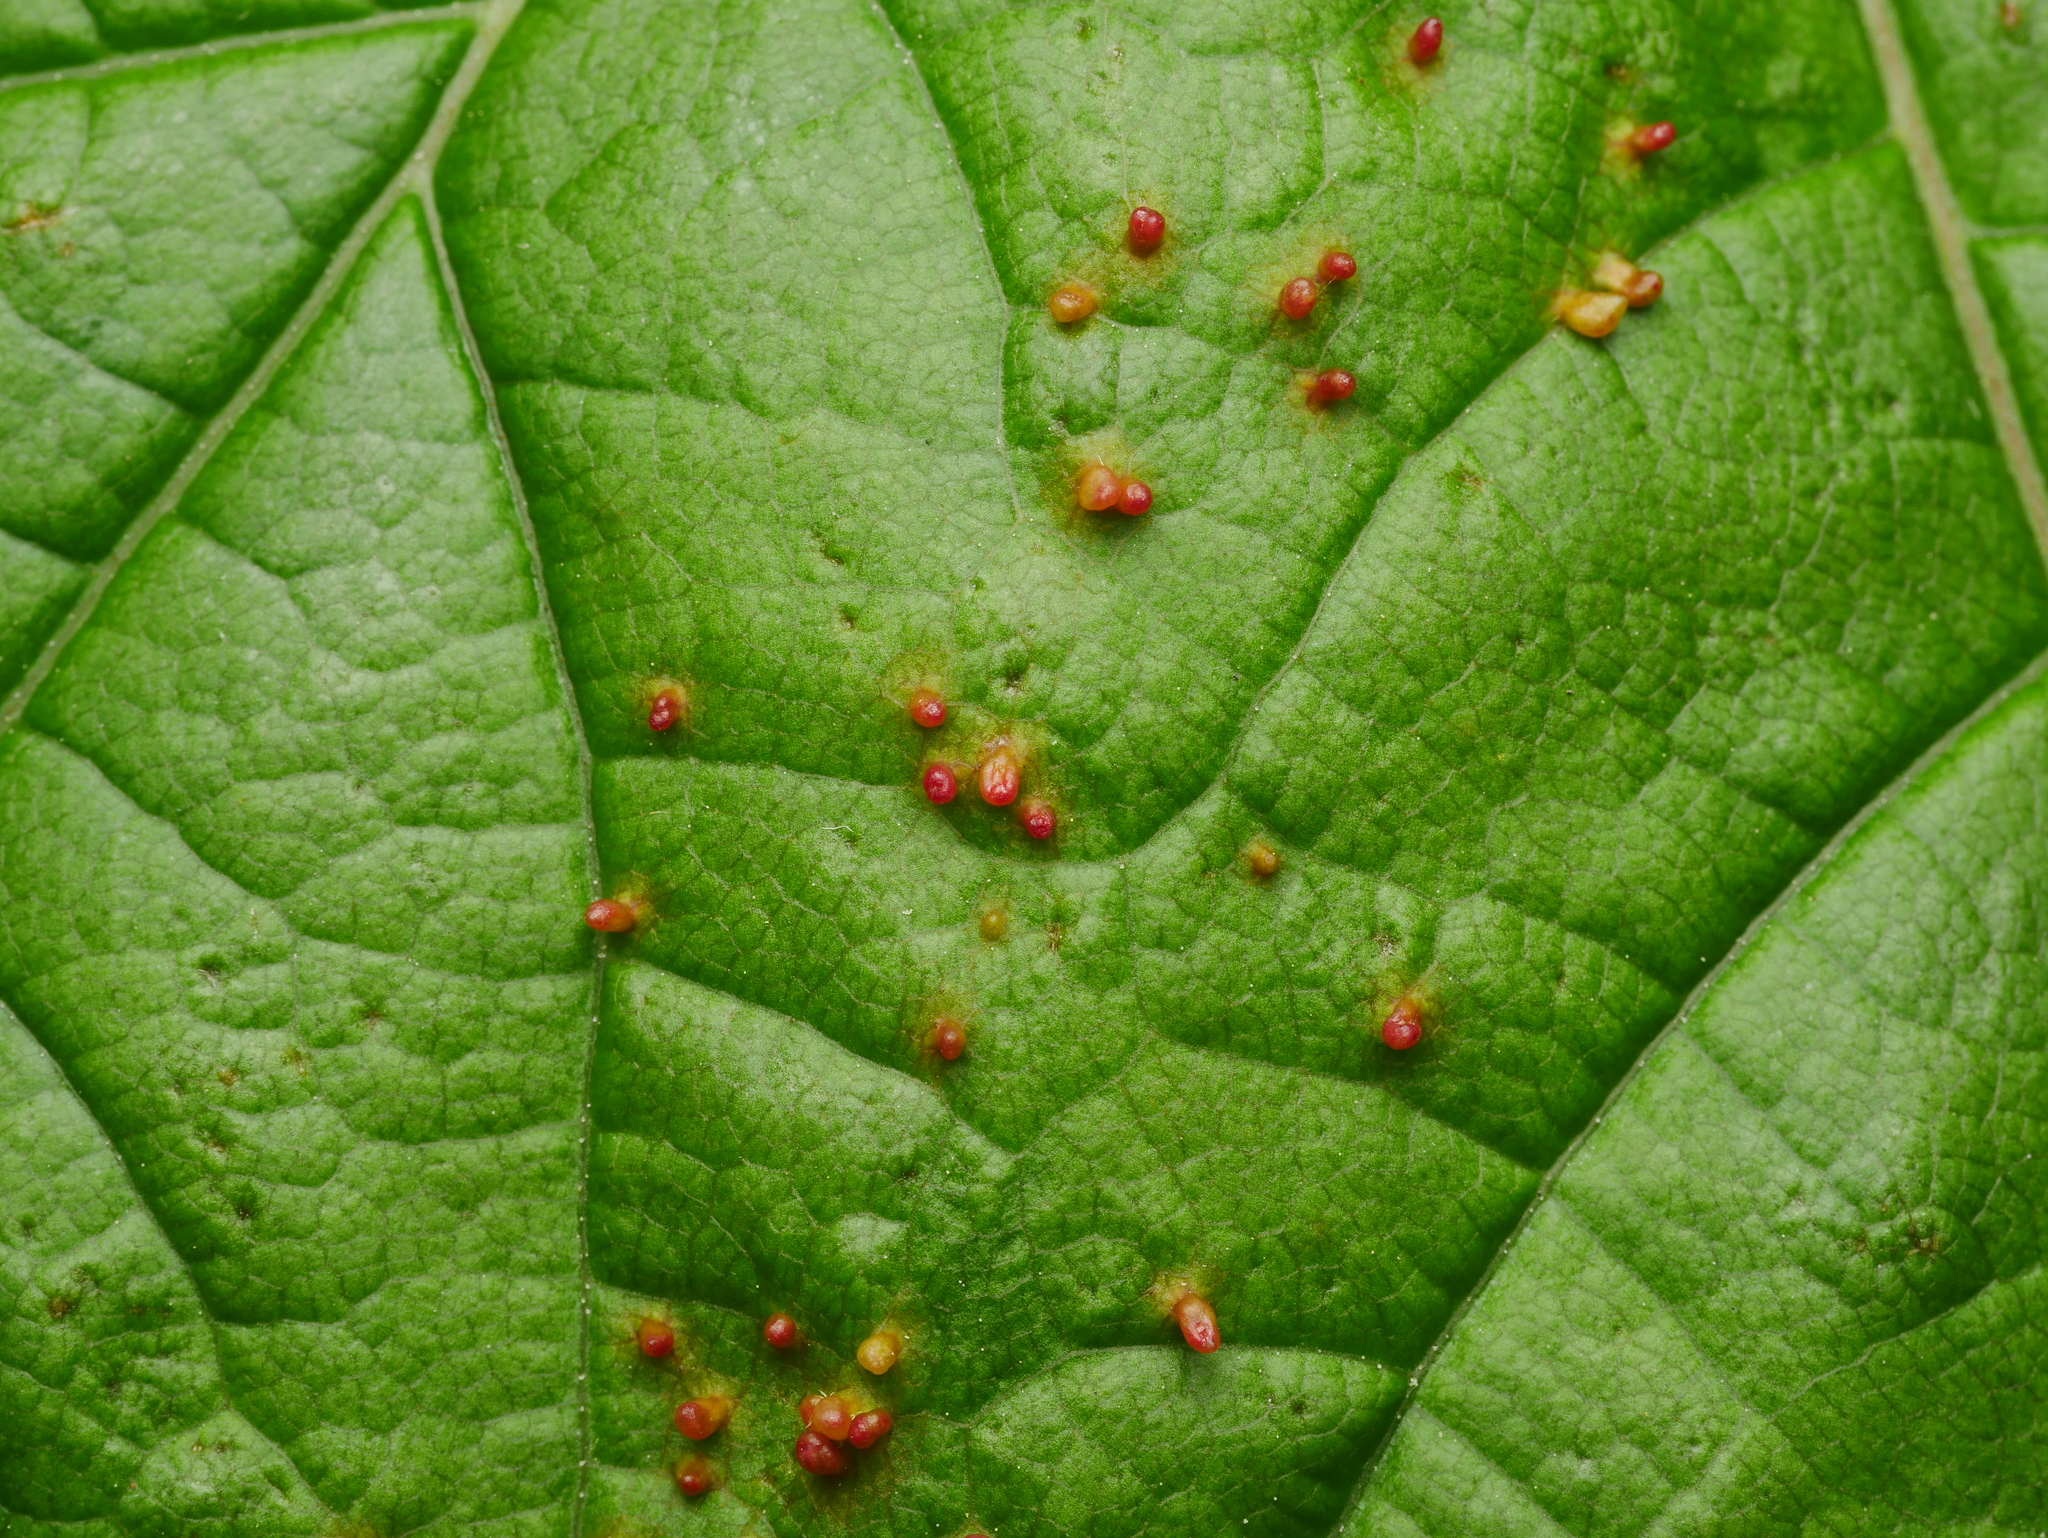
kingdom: Animalia
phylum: Arthropoda
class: Arachnida
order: Trombidiformes
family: Eriophyidae
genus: Aceria
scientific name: Aceria cephaloneus
